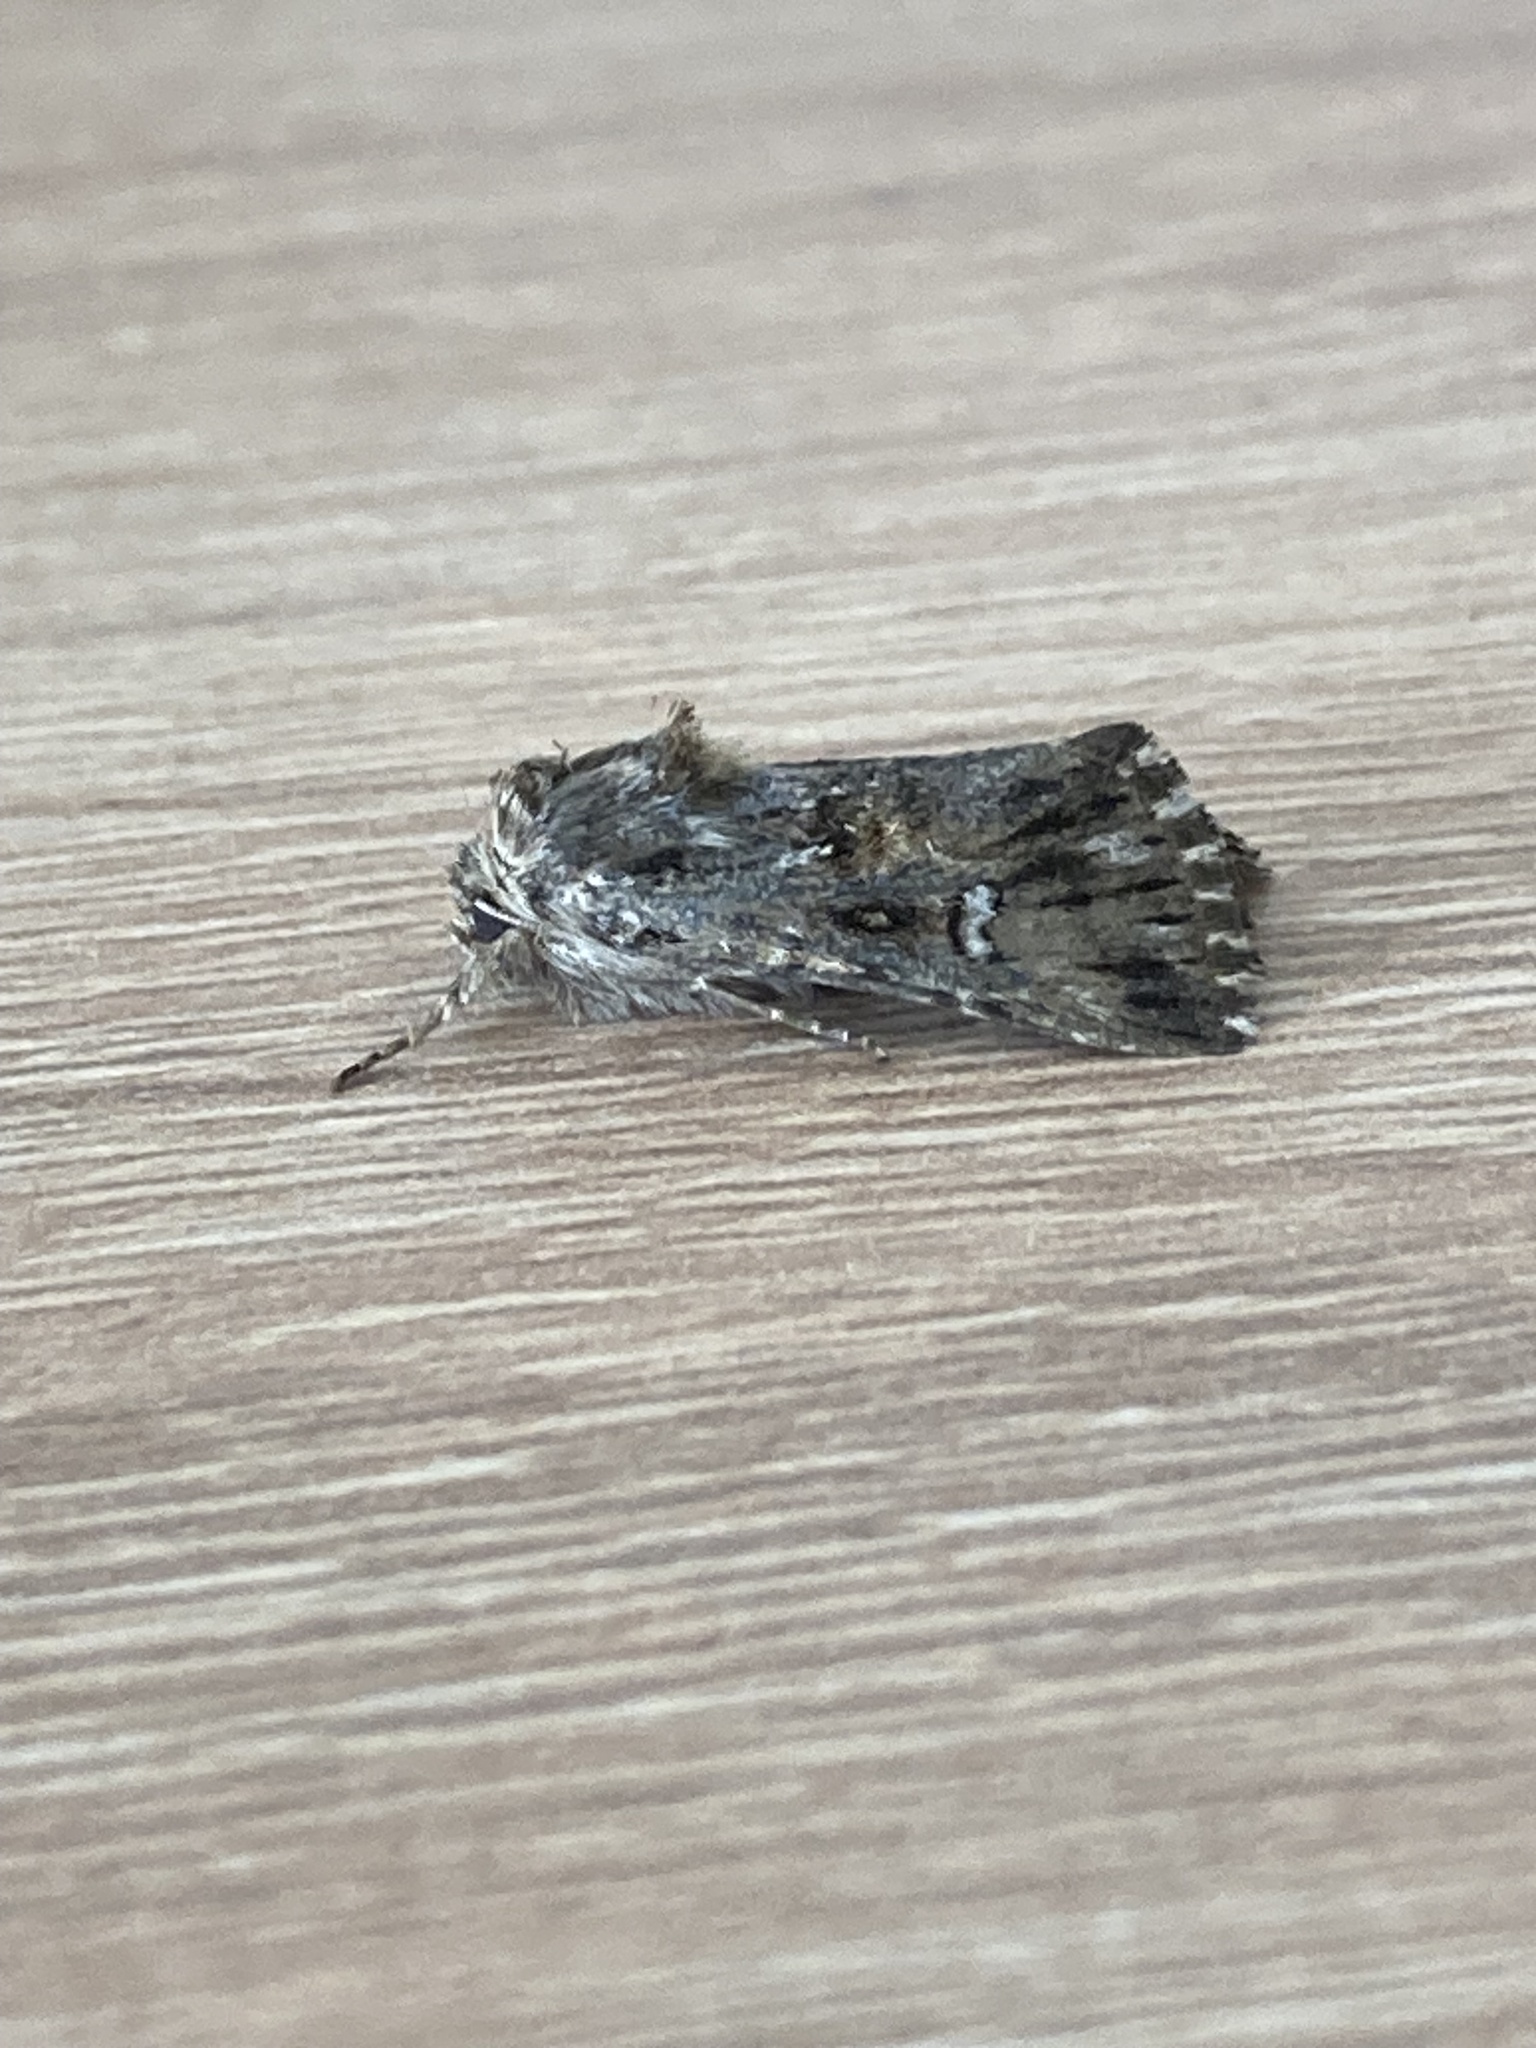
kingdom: Animalia
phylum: Arthropoda
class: Insecta
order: Lepidoptera
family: Noctuidae
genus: Calophasia
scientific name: Calophasia lunula
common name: Toadflax brocade
